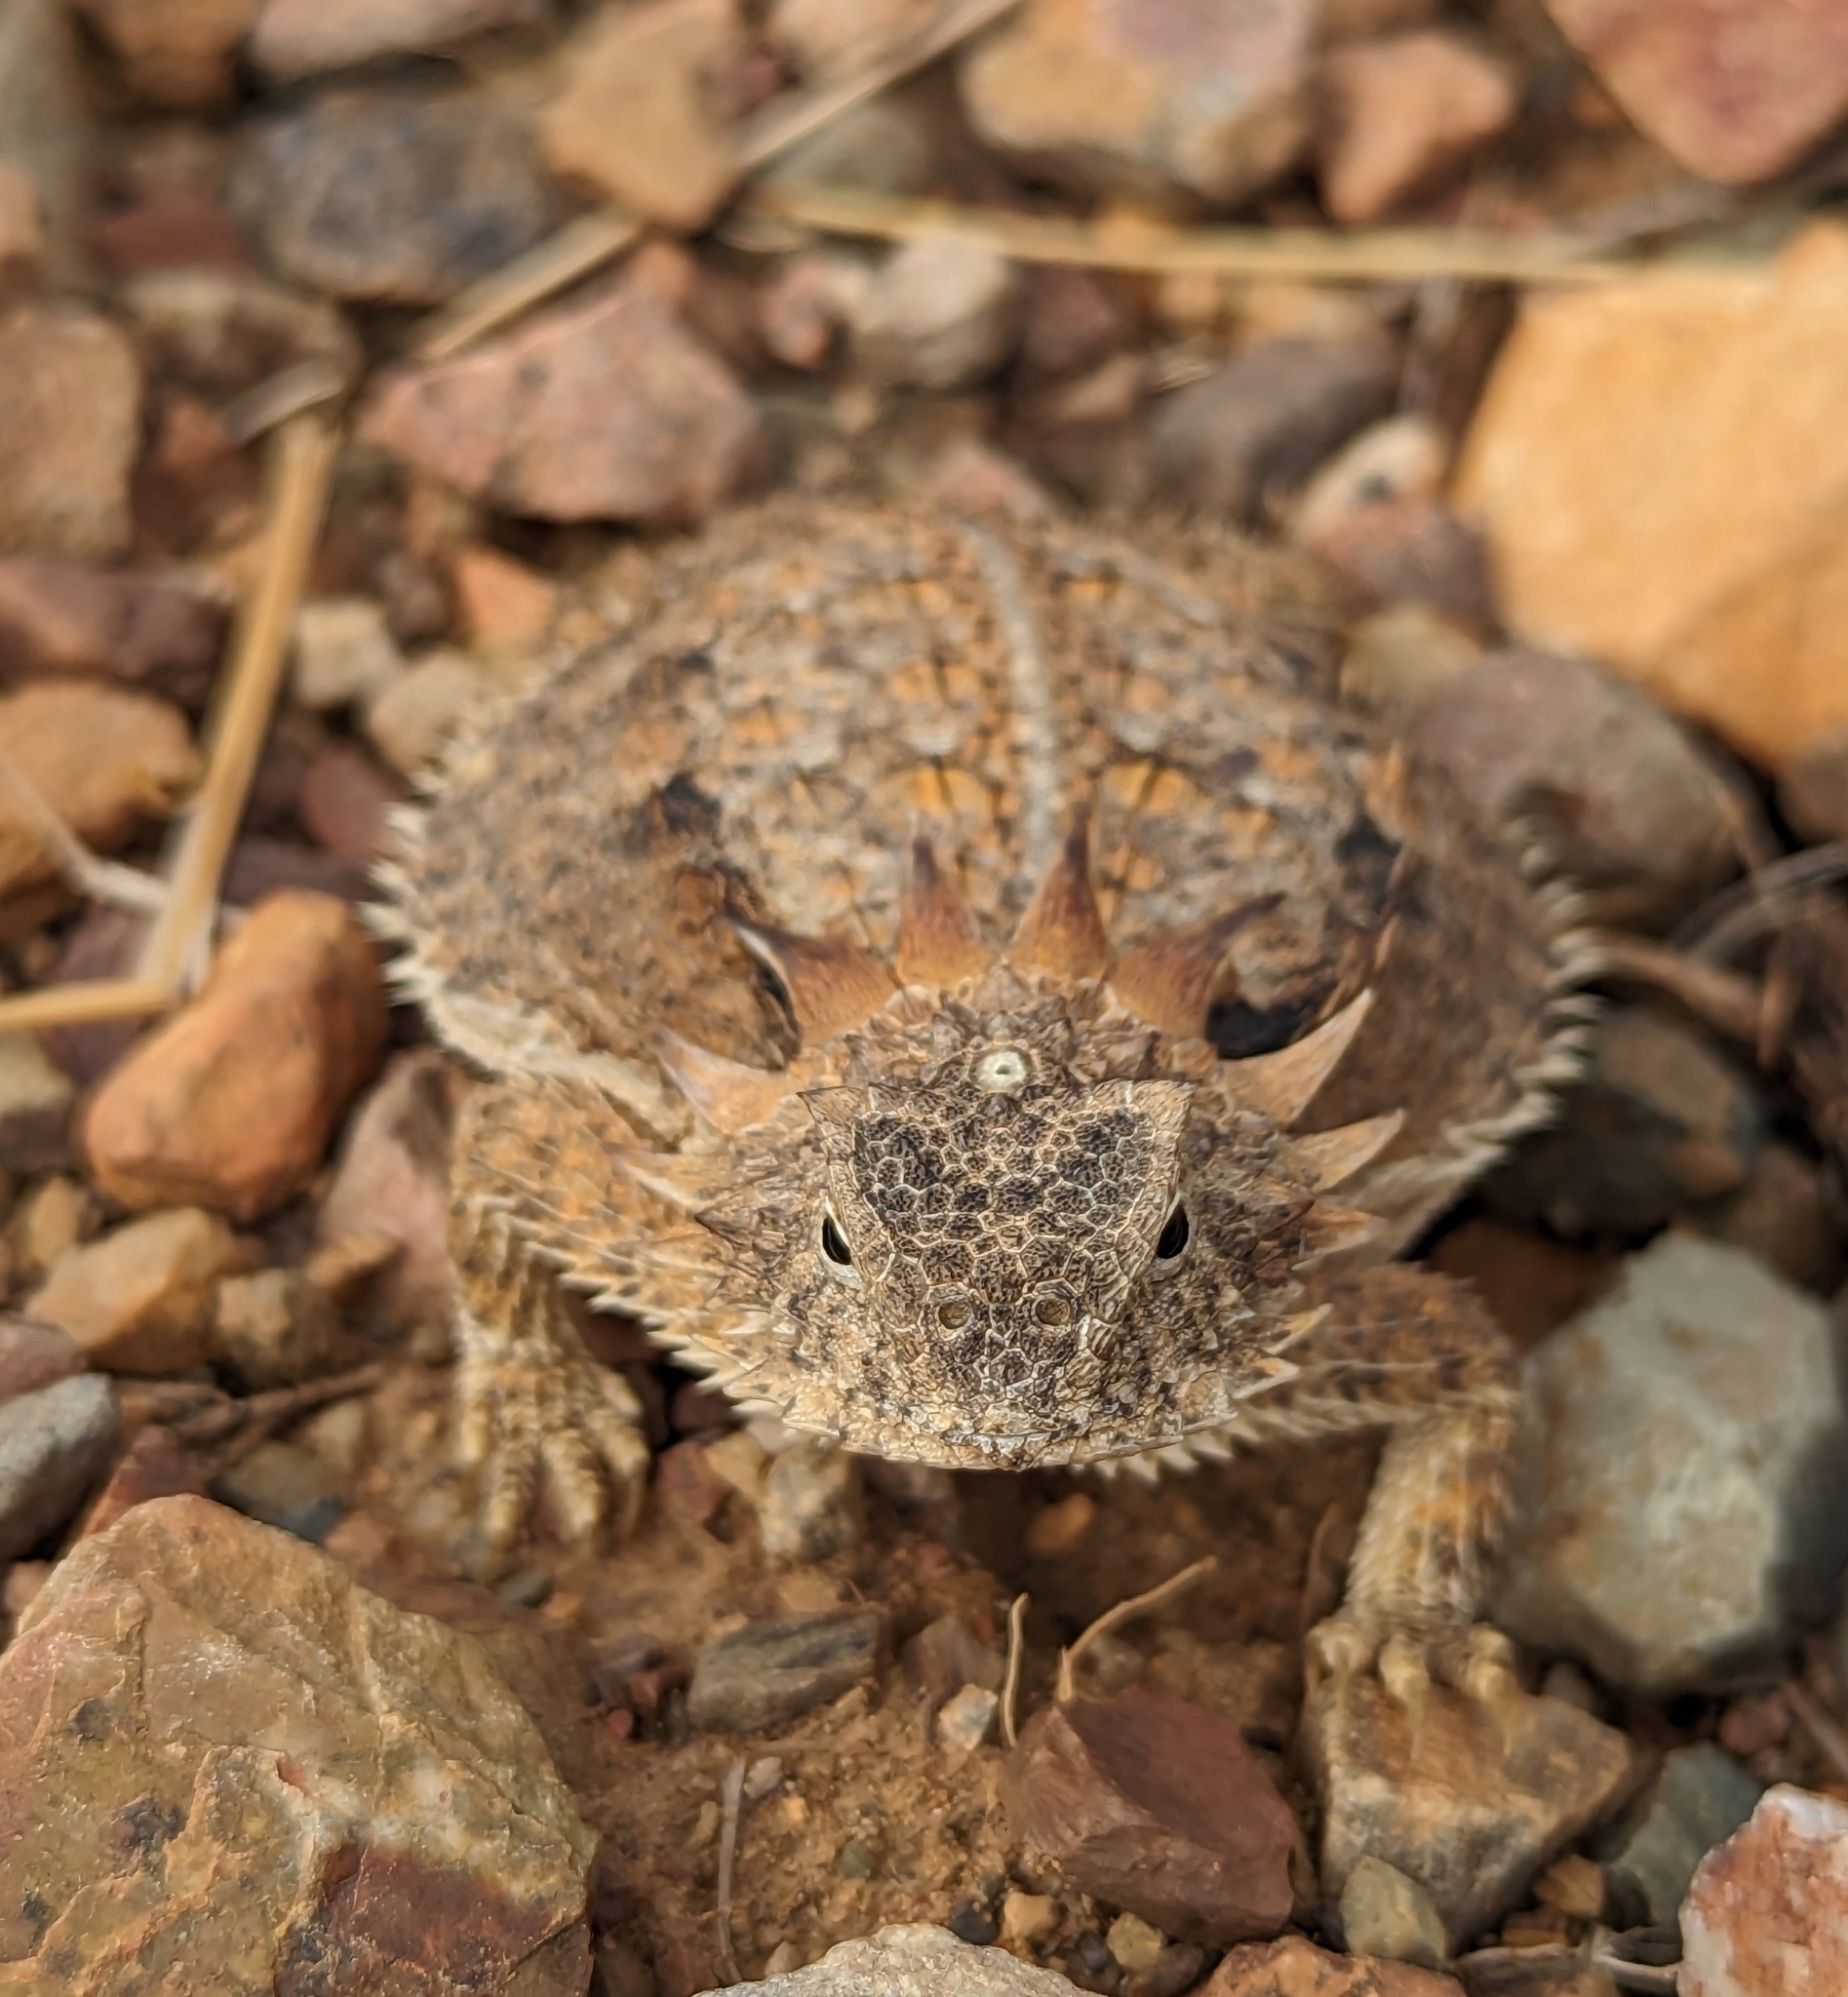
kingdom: Animalia
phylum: Chordata
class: Squamata
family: Phrynosomatidae
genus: Phrynosoma
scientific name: Phrynosoma solare
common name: Regal horned lizard
